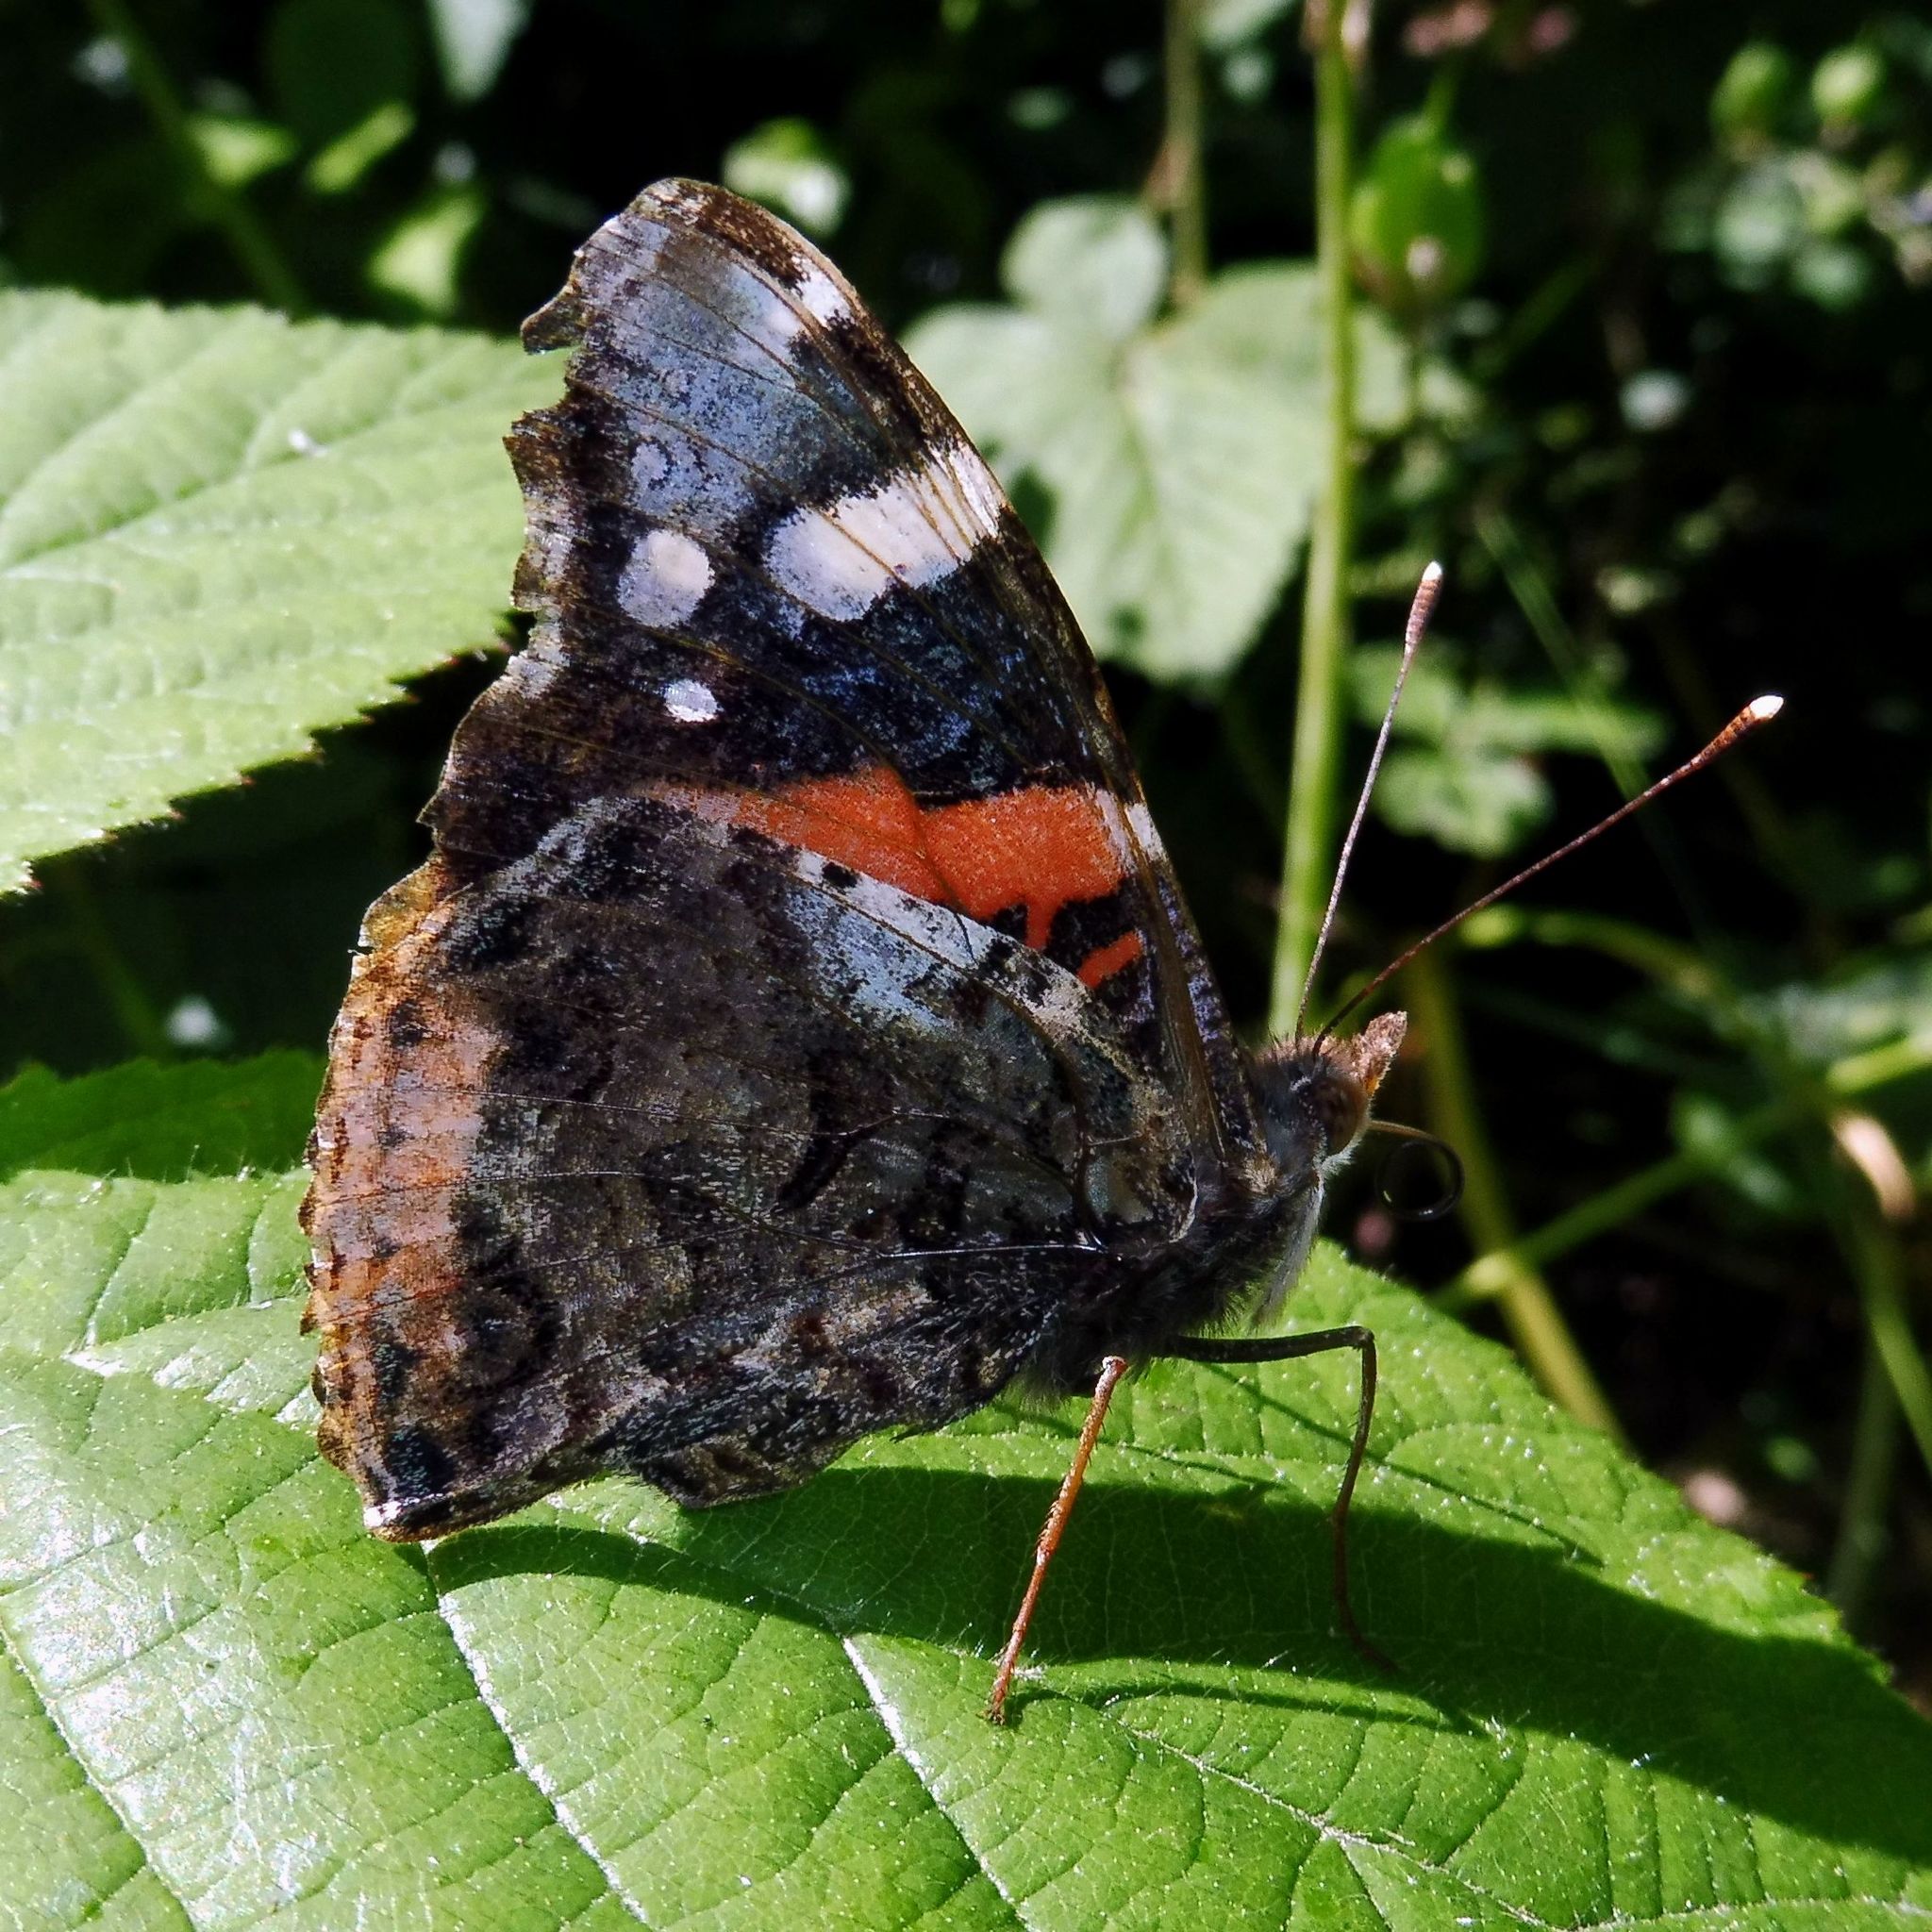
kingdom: Animalia
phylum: Arthropoda
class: Insecta
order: Lepidoptera
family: Nymphalidae
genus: Vanessa
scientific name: Vanessa atalanta
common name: Red admiral
